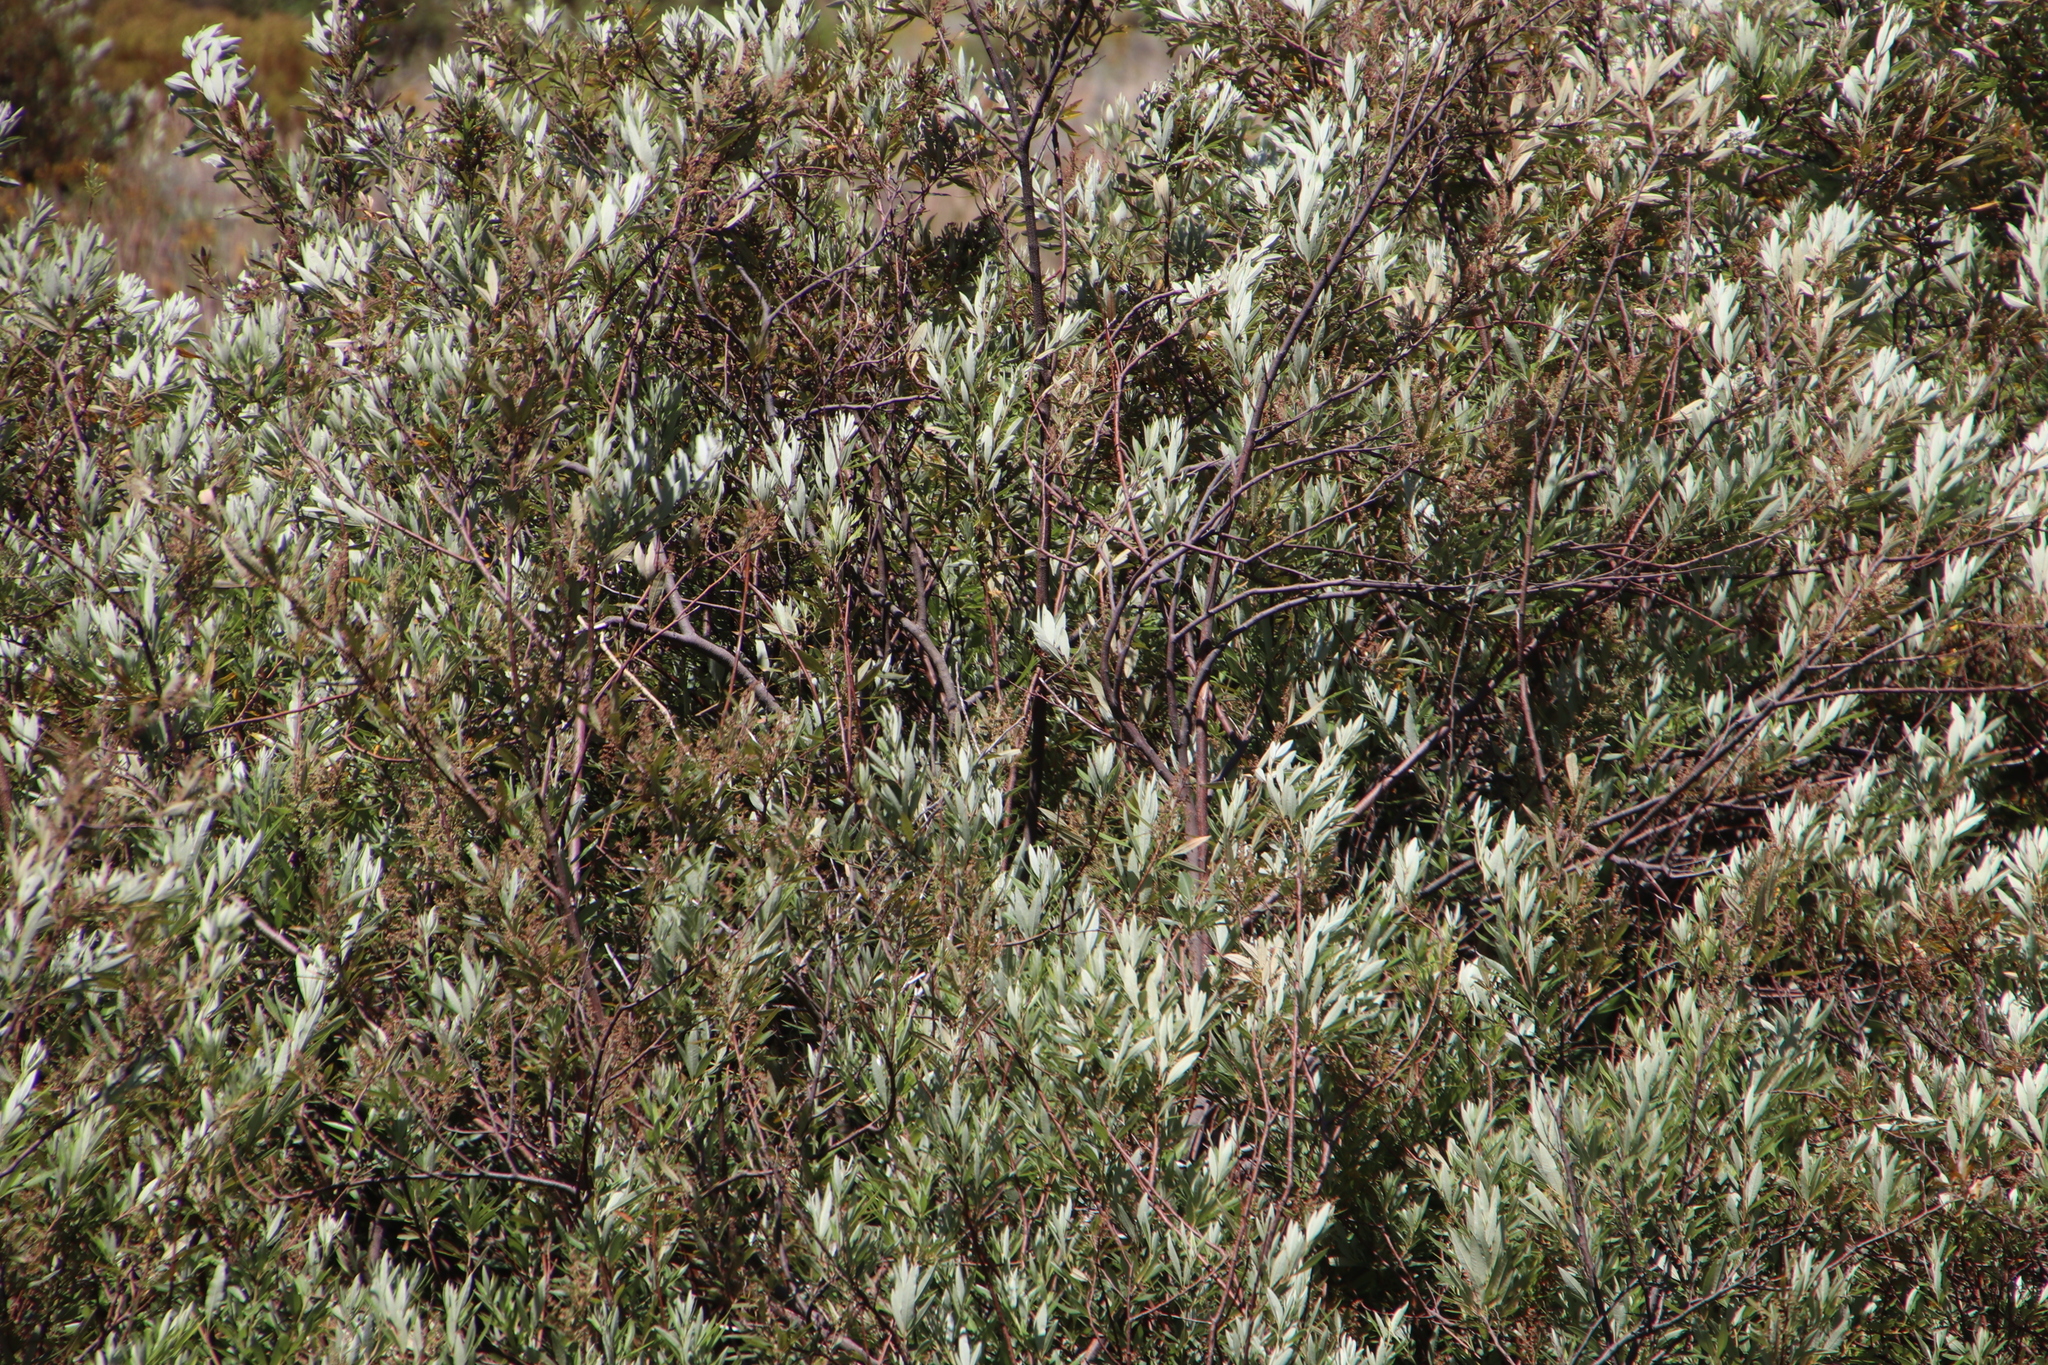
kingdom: Plantae
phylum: Tracheophyta
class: Magnoliopsida
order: Sapindales
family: Anacardiaceae
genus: Searsia
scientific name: Searsia angustifolia
